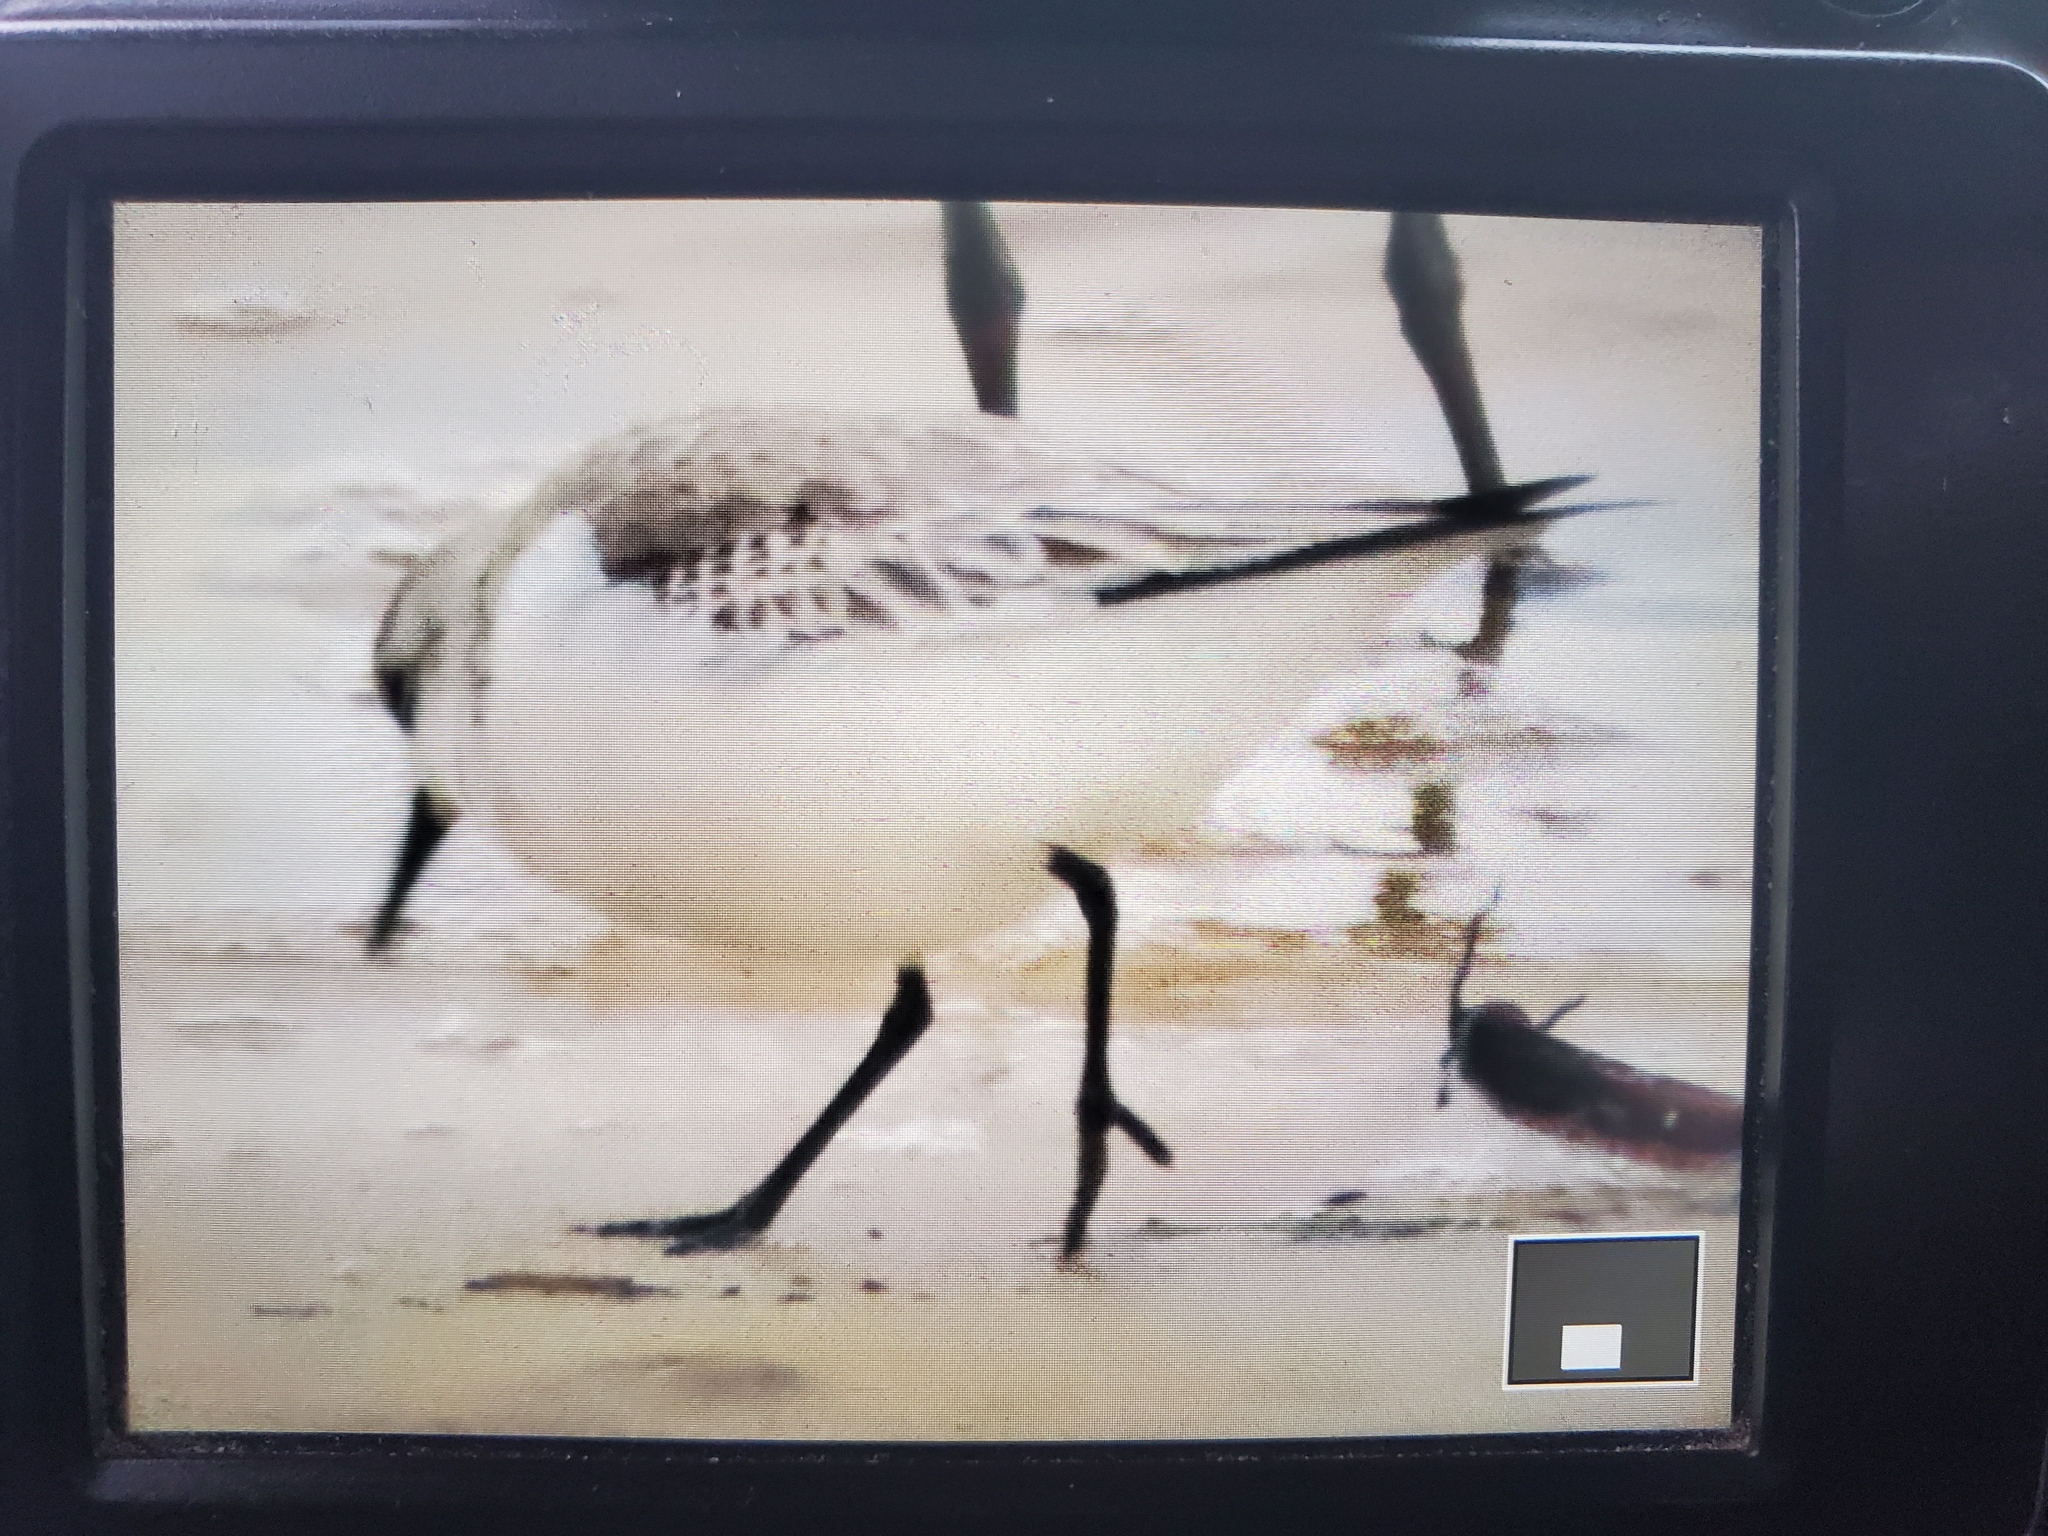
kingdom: Animalia
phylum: Chordata
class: Aves
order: Charadriiformes
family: Scolopacidae
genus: Calidris
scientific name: Calidris alba
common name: Sanderling
